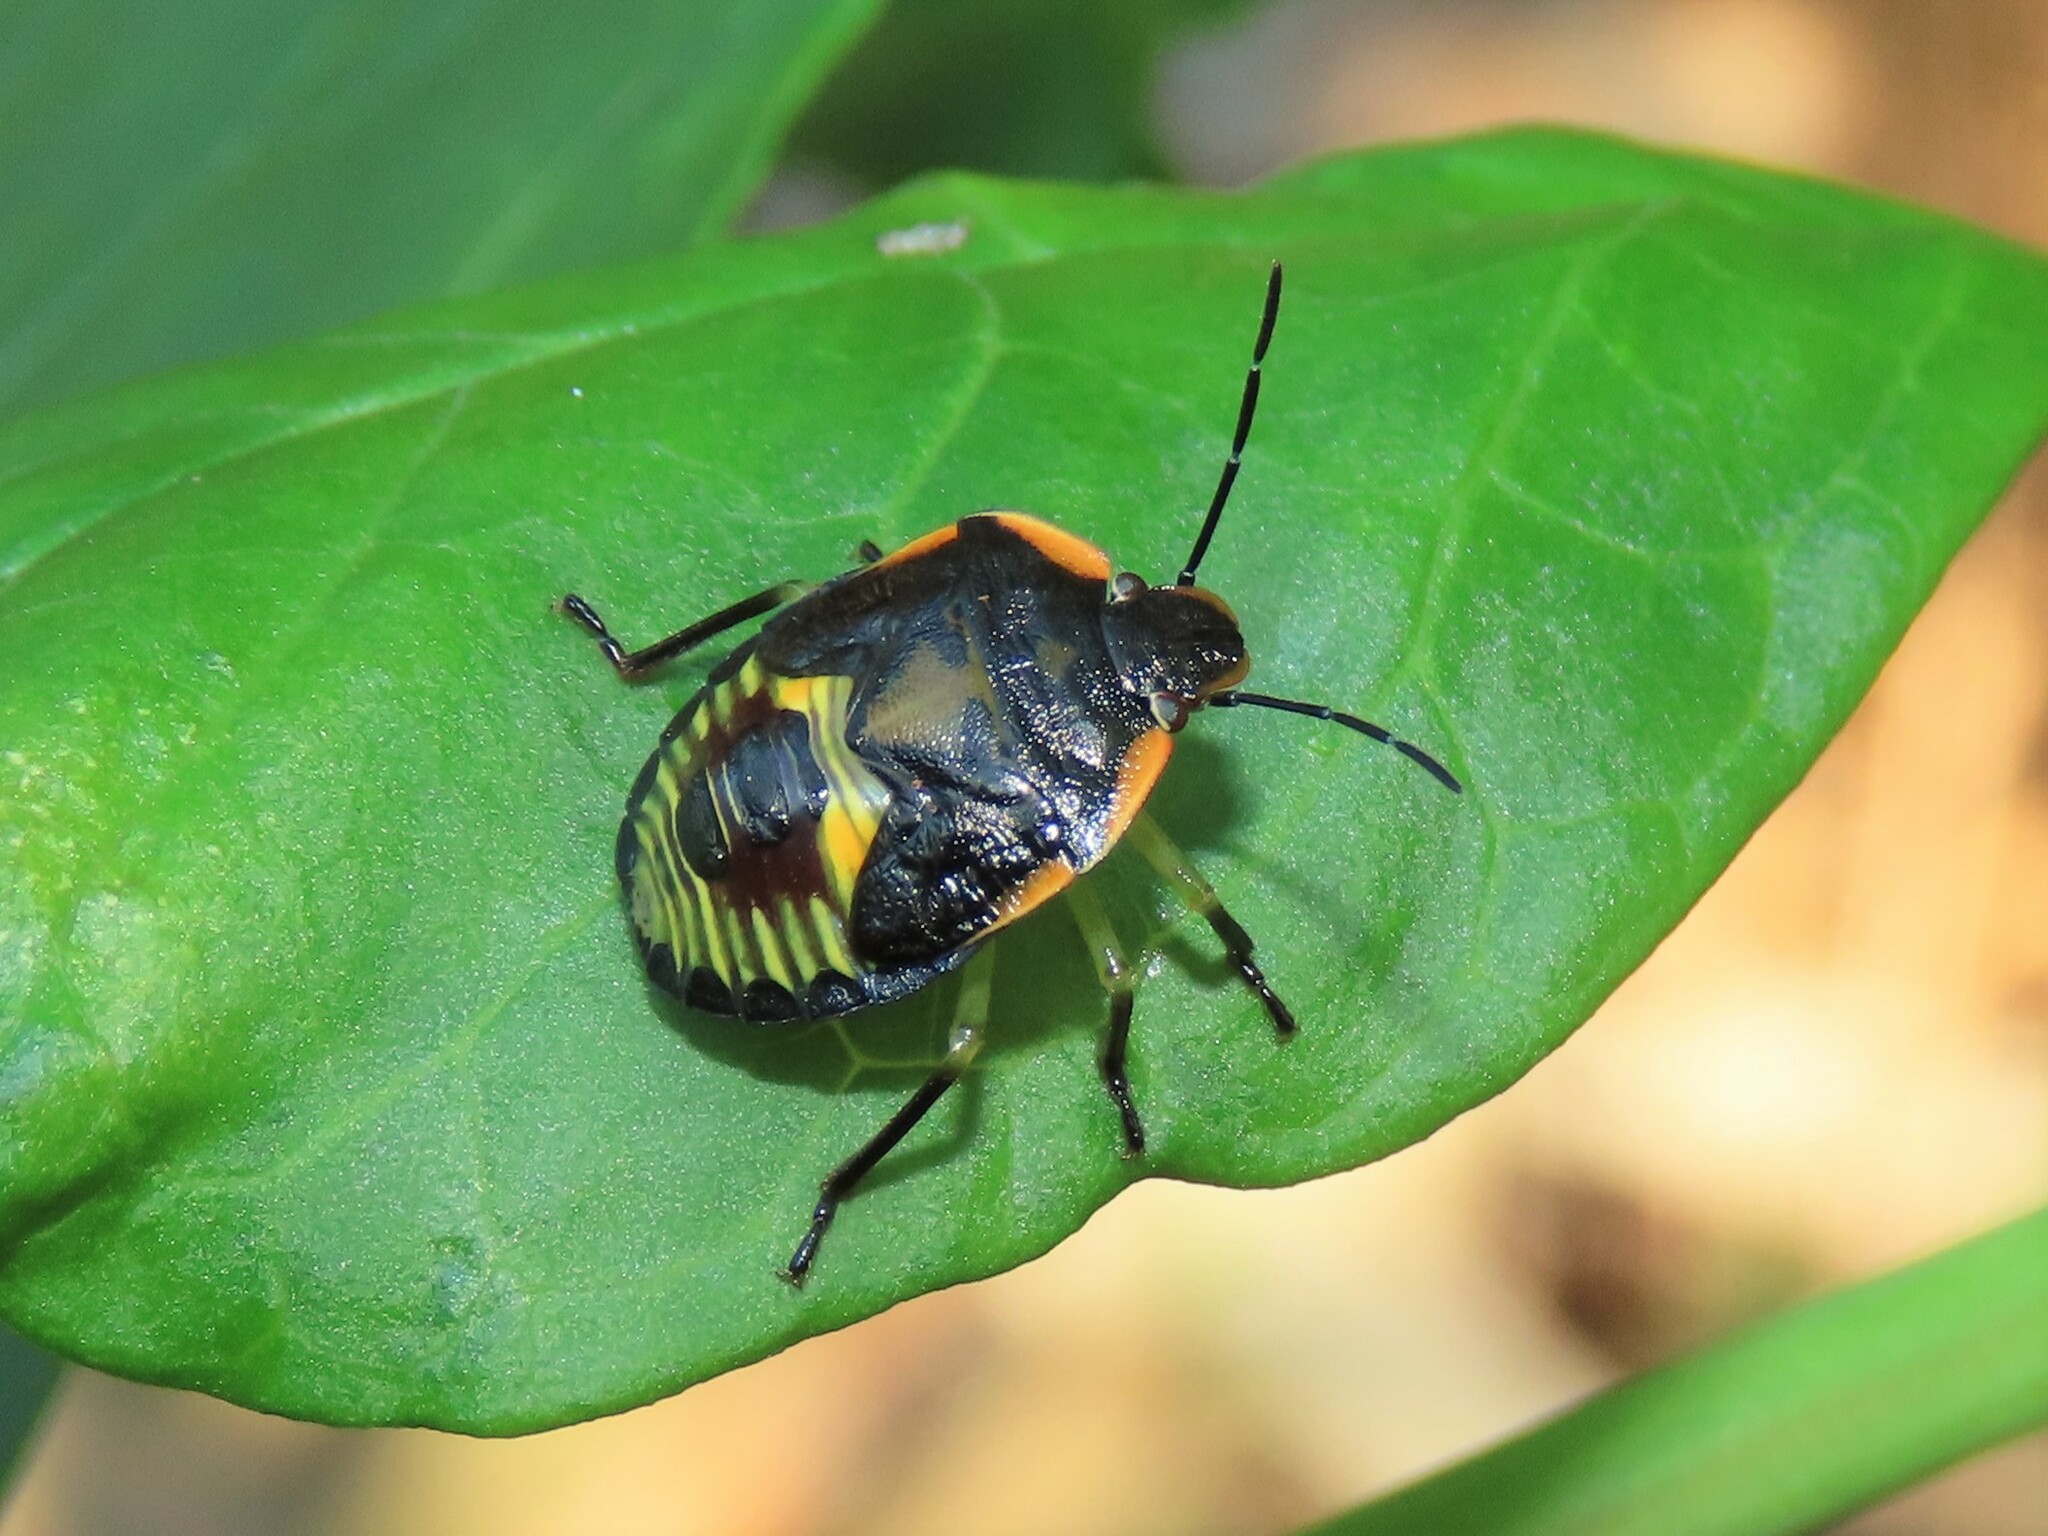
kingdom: Animalia
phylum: Arthropoda
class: Insecta
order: Hemiptera
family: Pentatomidae
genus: Chinavia
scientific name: Chinavia hilaris
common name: Green stink bug
